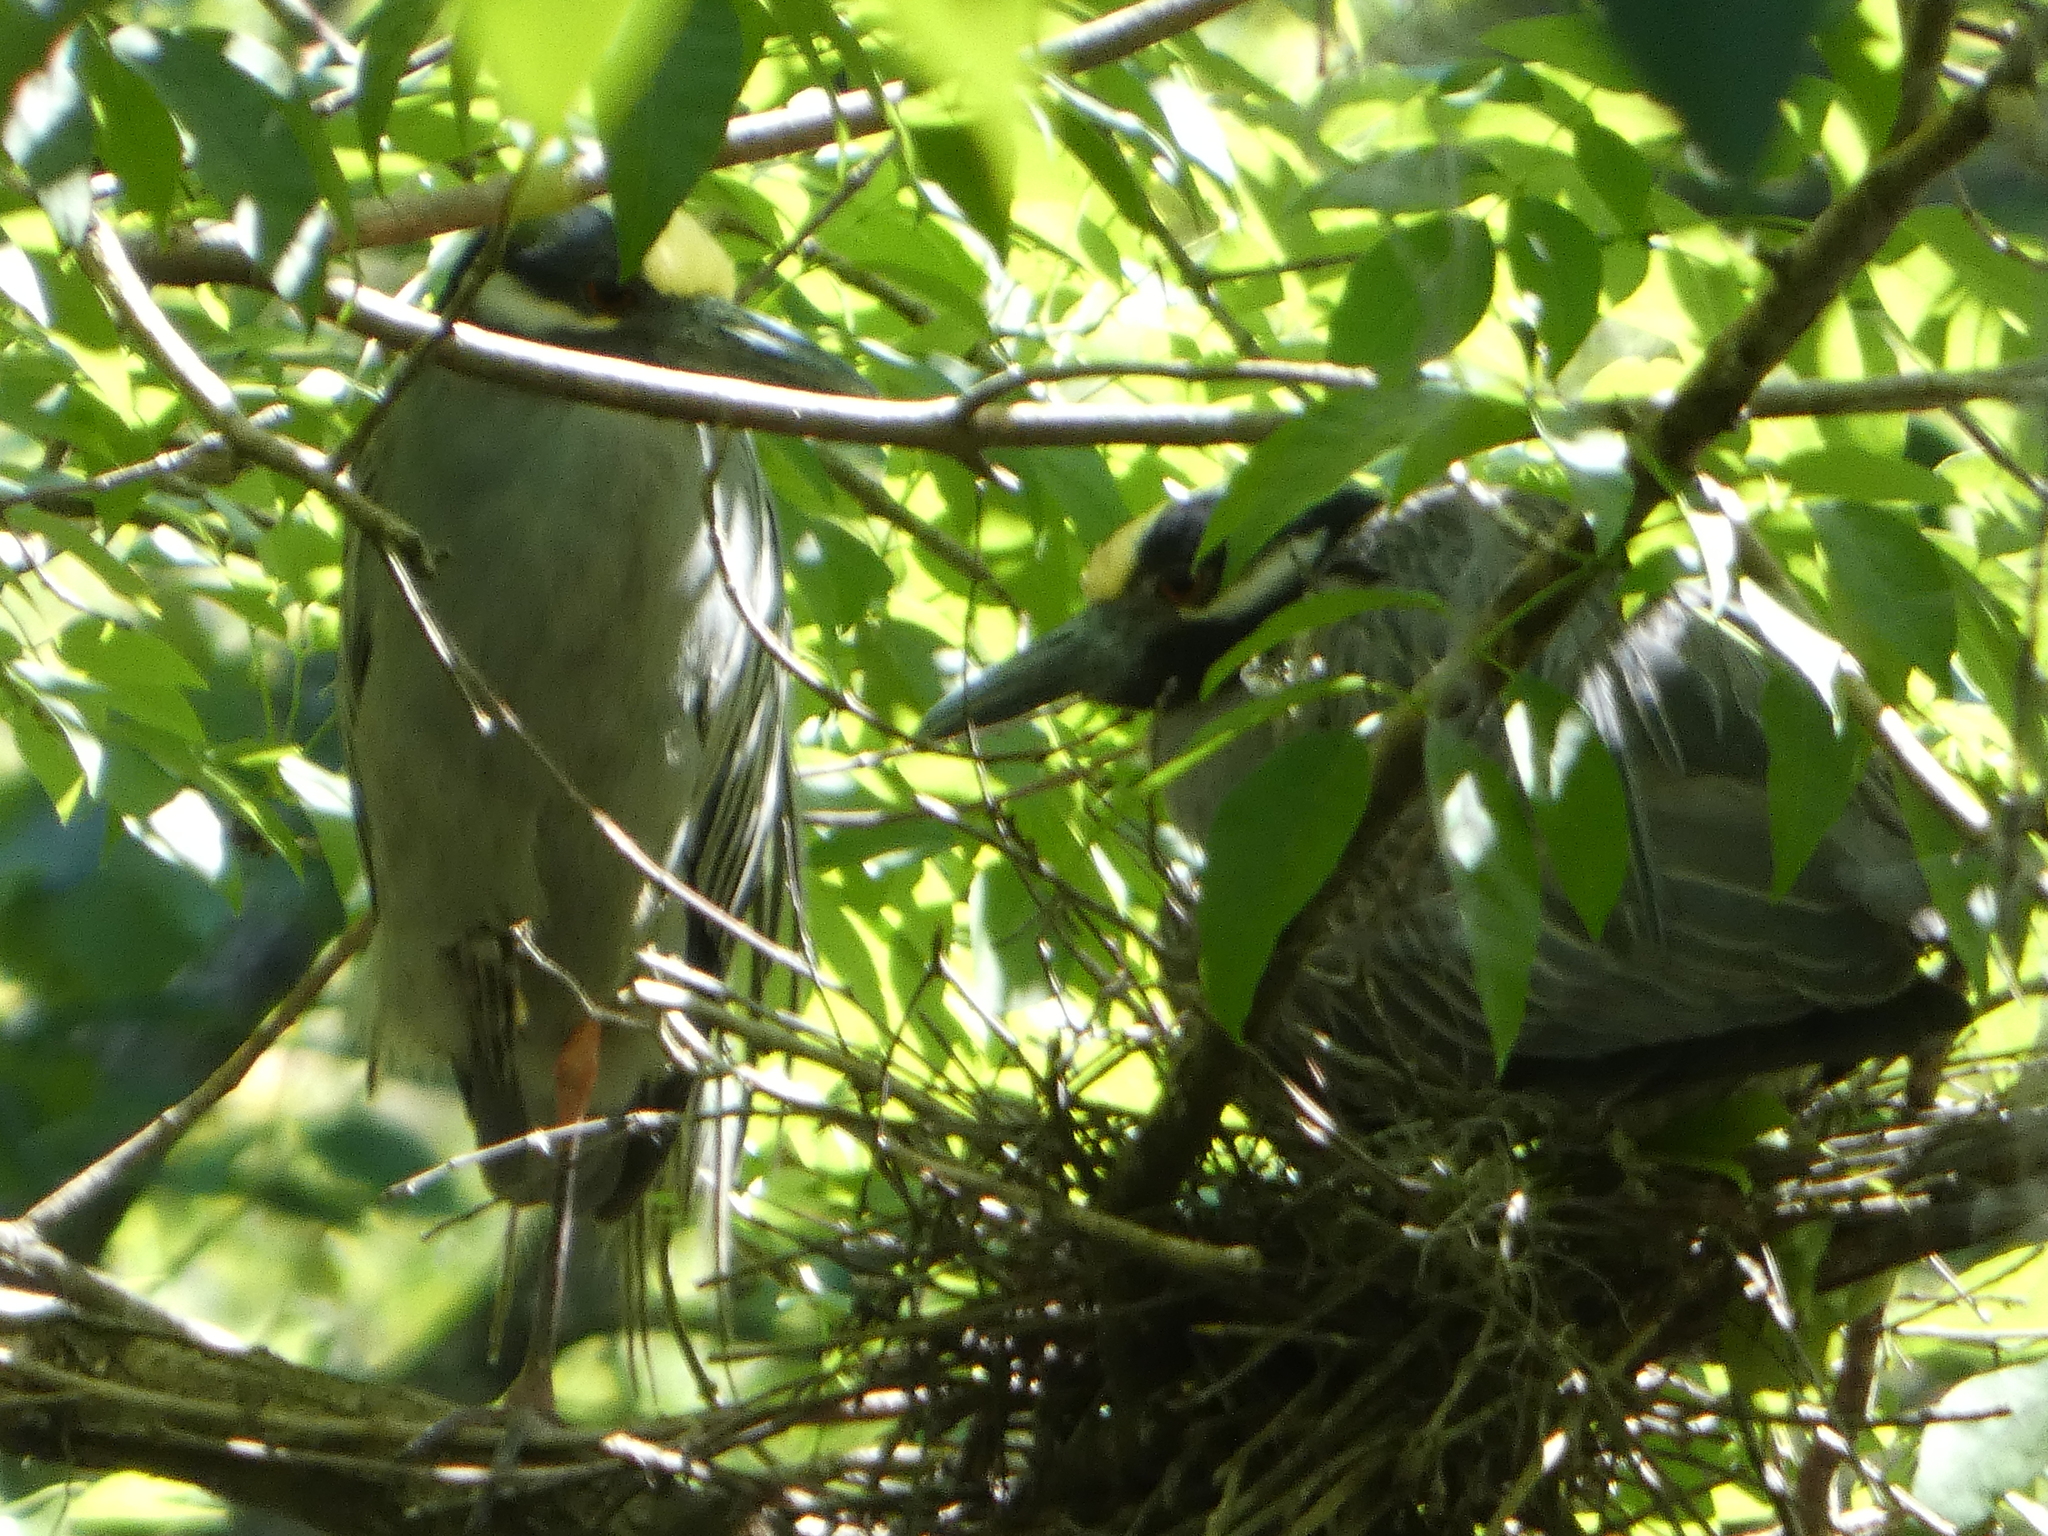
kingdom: Animalia
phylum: Chordata
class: Aves
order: Pelecaniformes
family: Ardeidae
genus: Nyctanassa
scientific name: Nyctanassa violacea
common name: Yellow-crowned night heron
